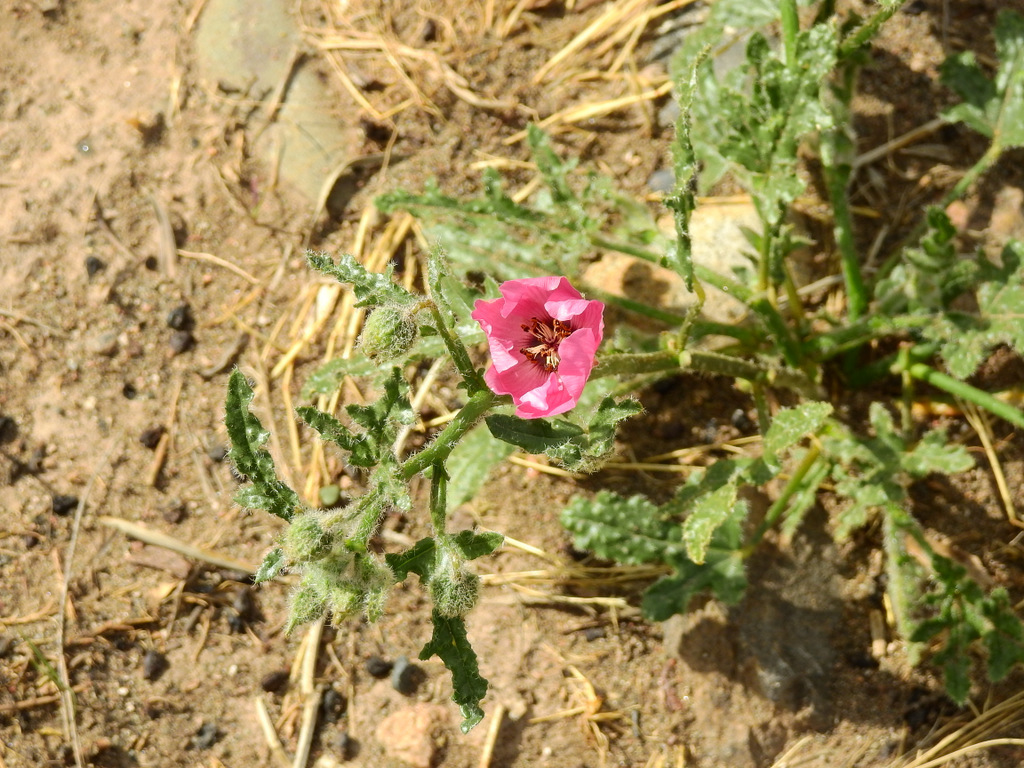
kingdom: Plantae
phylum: Tracheophyta
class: Magnoliopsida
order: Malvales
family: Malvaceae
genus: Lecanophora
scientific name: Lecanophora heterophylla
